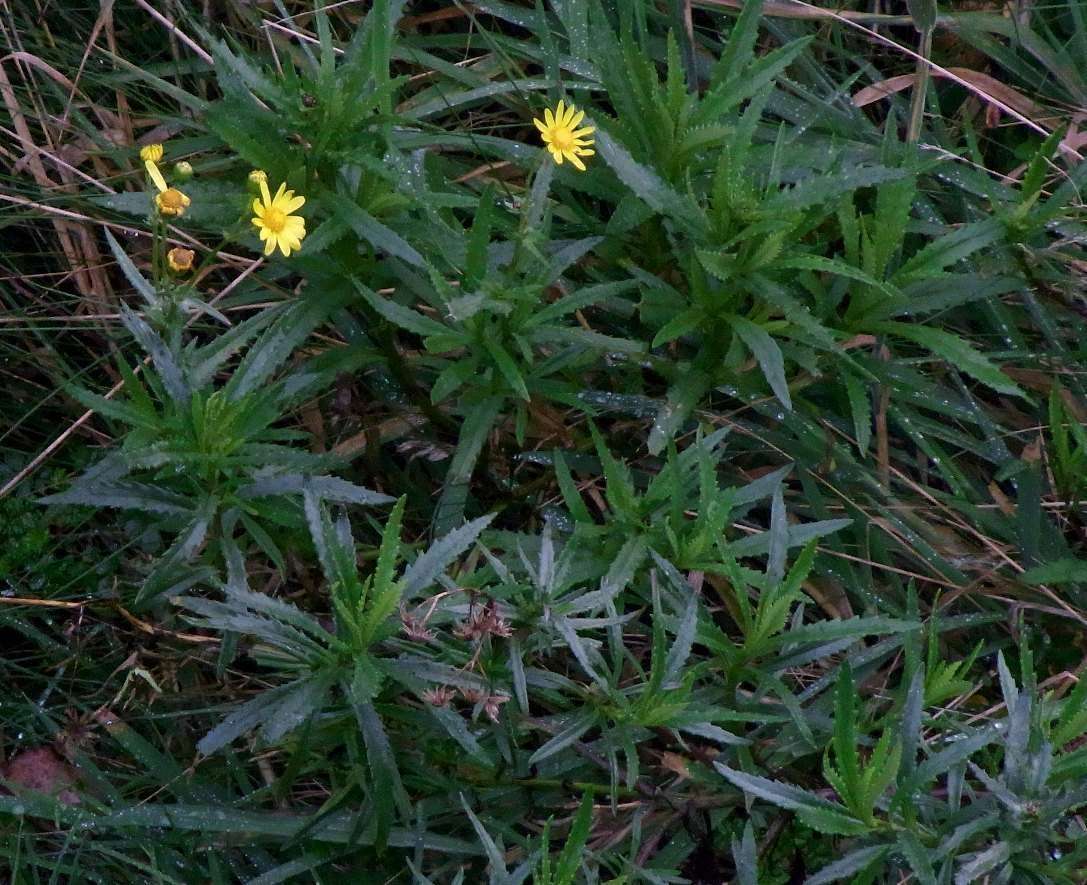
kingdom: Plantae
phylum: Tracheophyta
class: Magnoliopsida
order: Asterales
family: Asteraceae
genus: Senecio
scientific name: Senecio pinnatifolius
